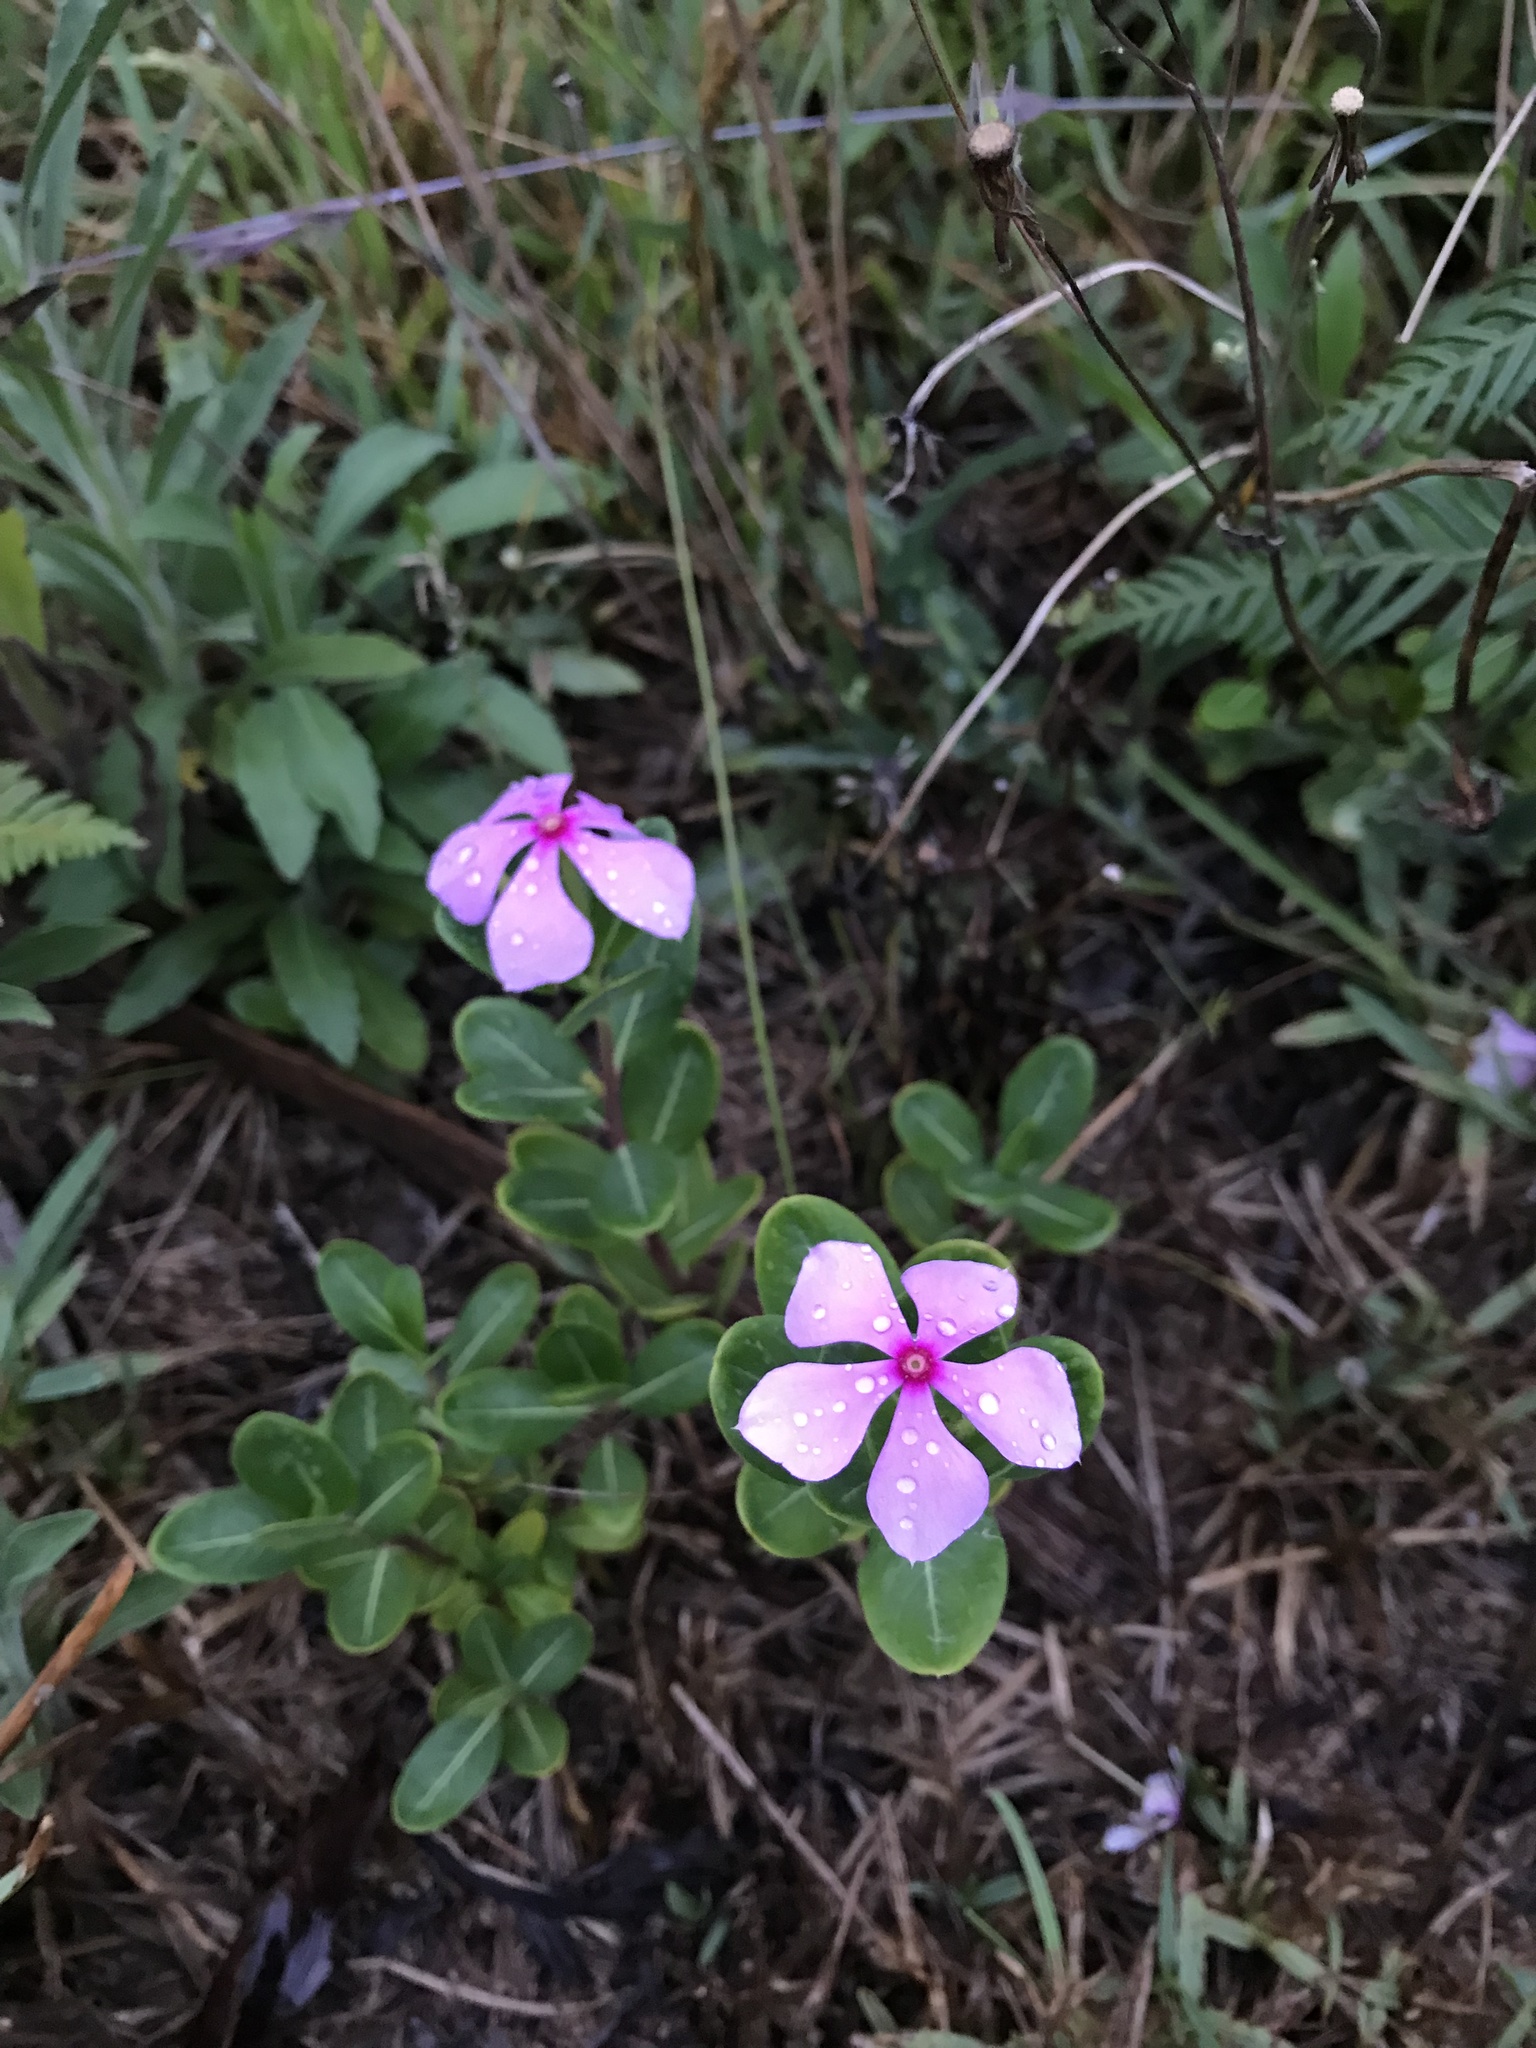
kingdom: Plantae
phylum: Tracheophyta
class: Magnoliopsida
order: Gentianales
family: Apocynaceae
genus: Catharanthus
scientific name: Catharanthus roseus
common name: Madagascar periwinkle
